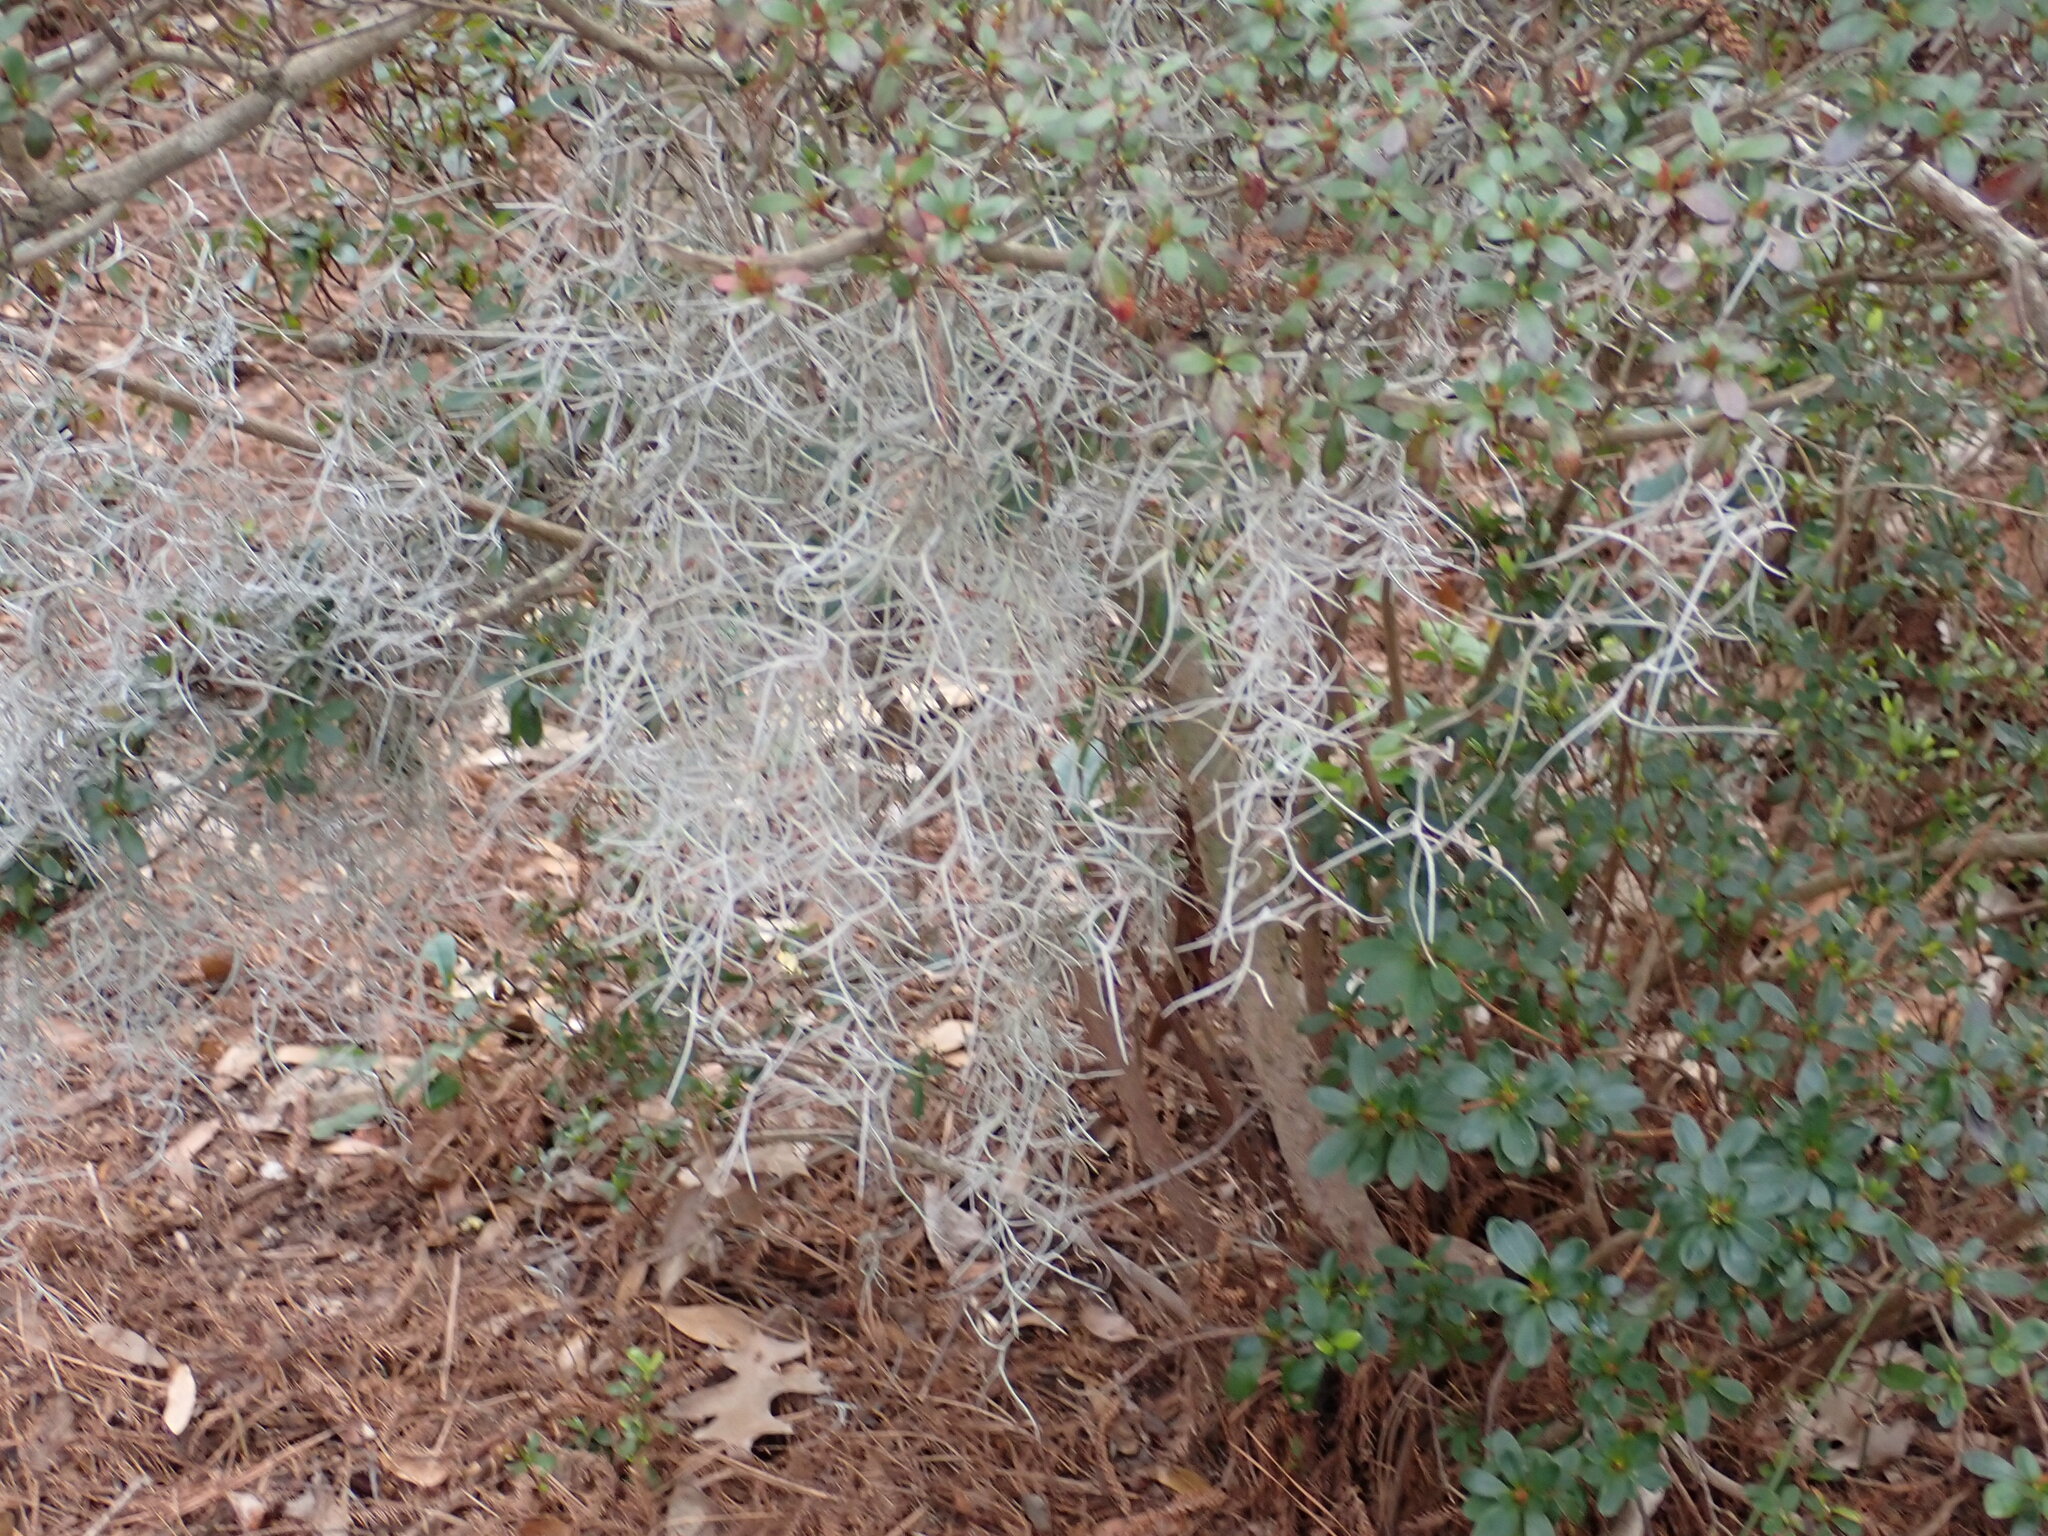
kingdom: Plantae
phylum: Tracheophyta
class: Liliopsida
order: Poales
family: Bromeliaceae
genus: Tillandsia
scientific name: Tillandsia usneoides
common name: Spanish moss
